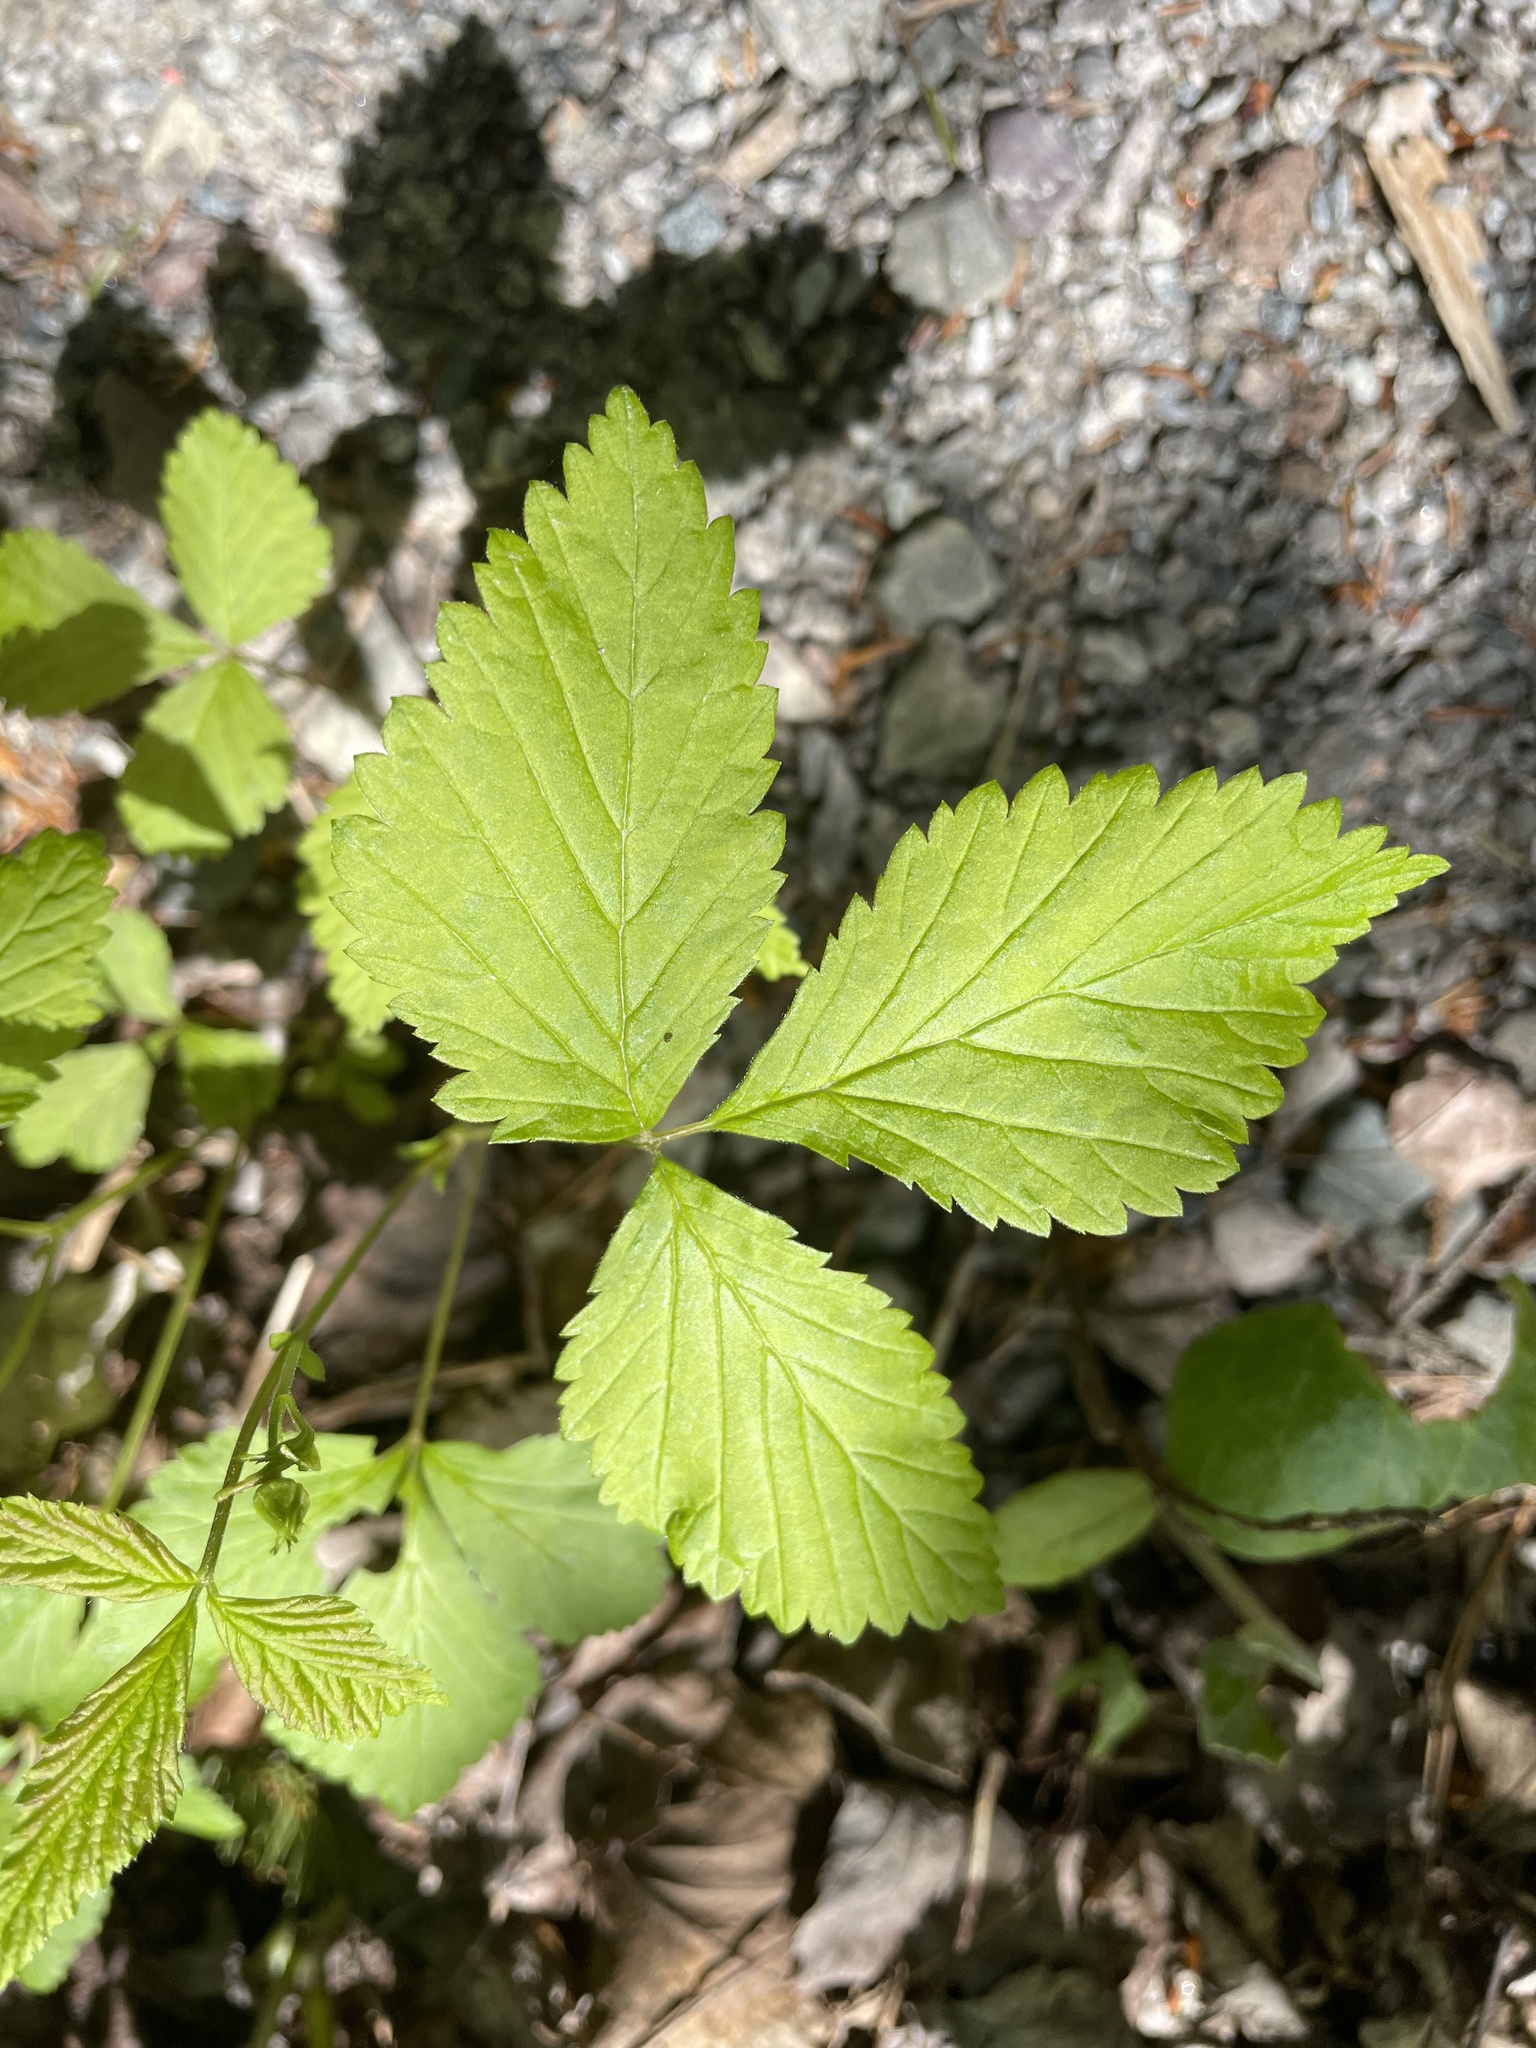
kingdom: Plantae
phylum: Tracheophyta
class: Magnoliopsida
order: Rosales
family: Rosaceae
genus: Rubus
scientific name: Rubus pubescens
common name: Dwarf raspberry
